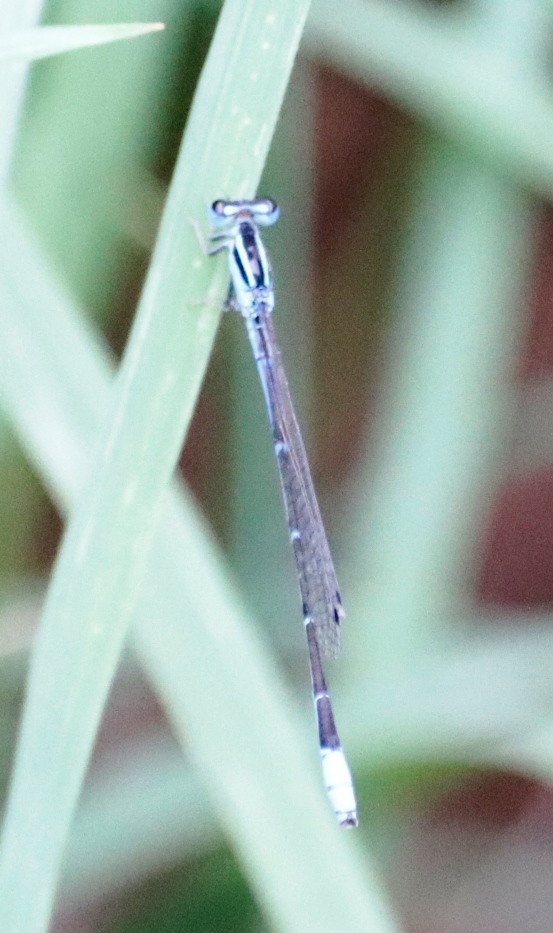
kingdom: Animalia
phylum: Arthropoda
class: Insecta
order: Odonata
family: Coenagrionidae
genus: Africallagma
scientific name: Africallagma glaucum
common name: Swamp bluet
